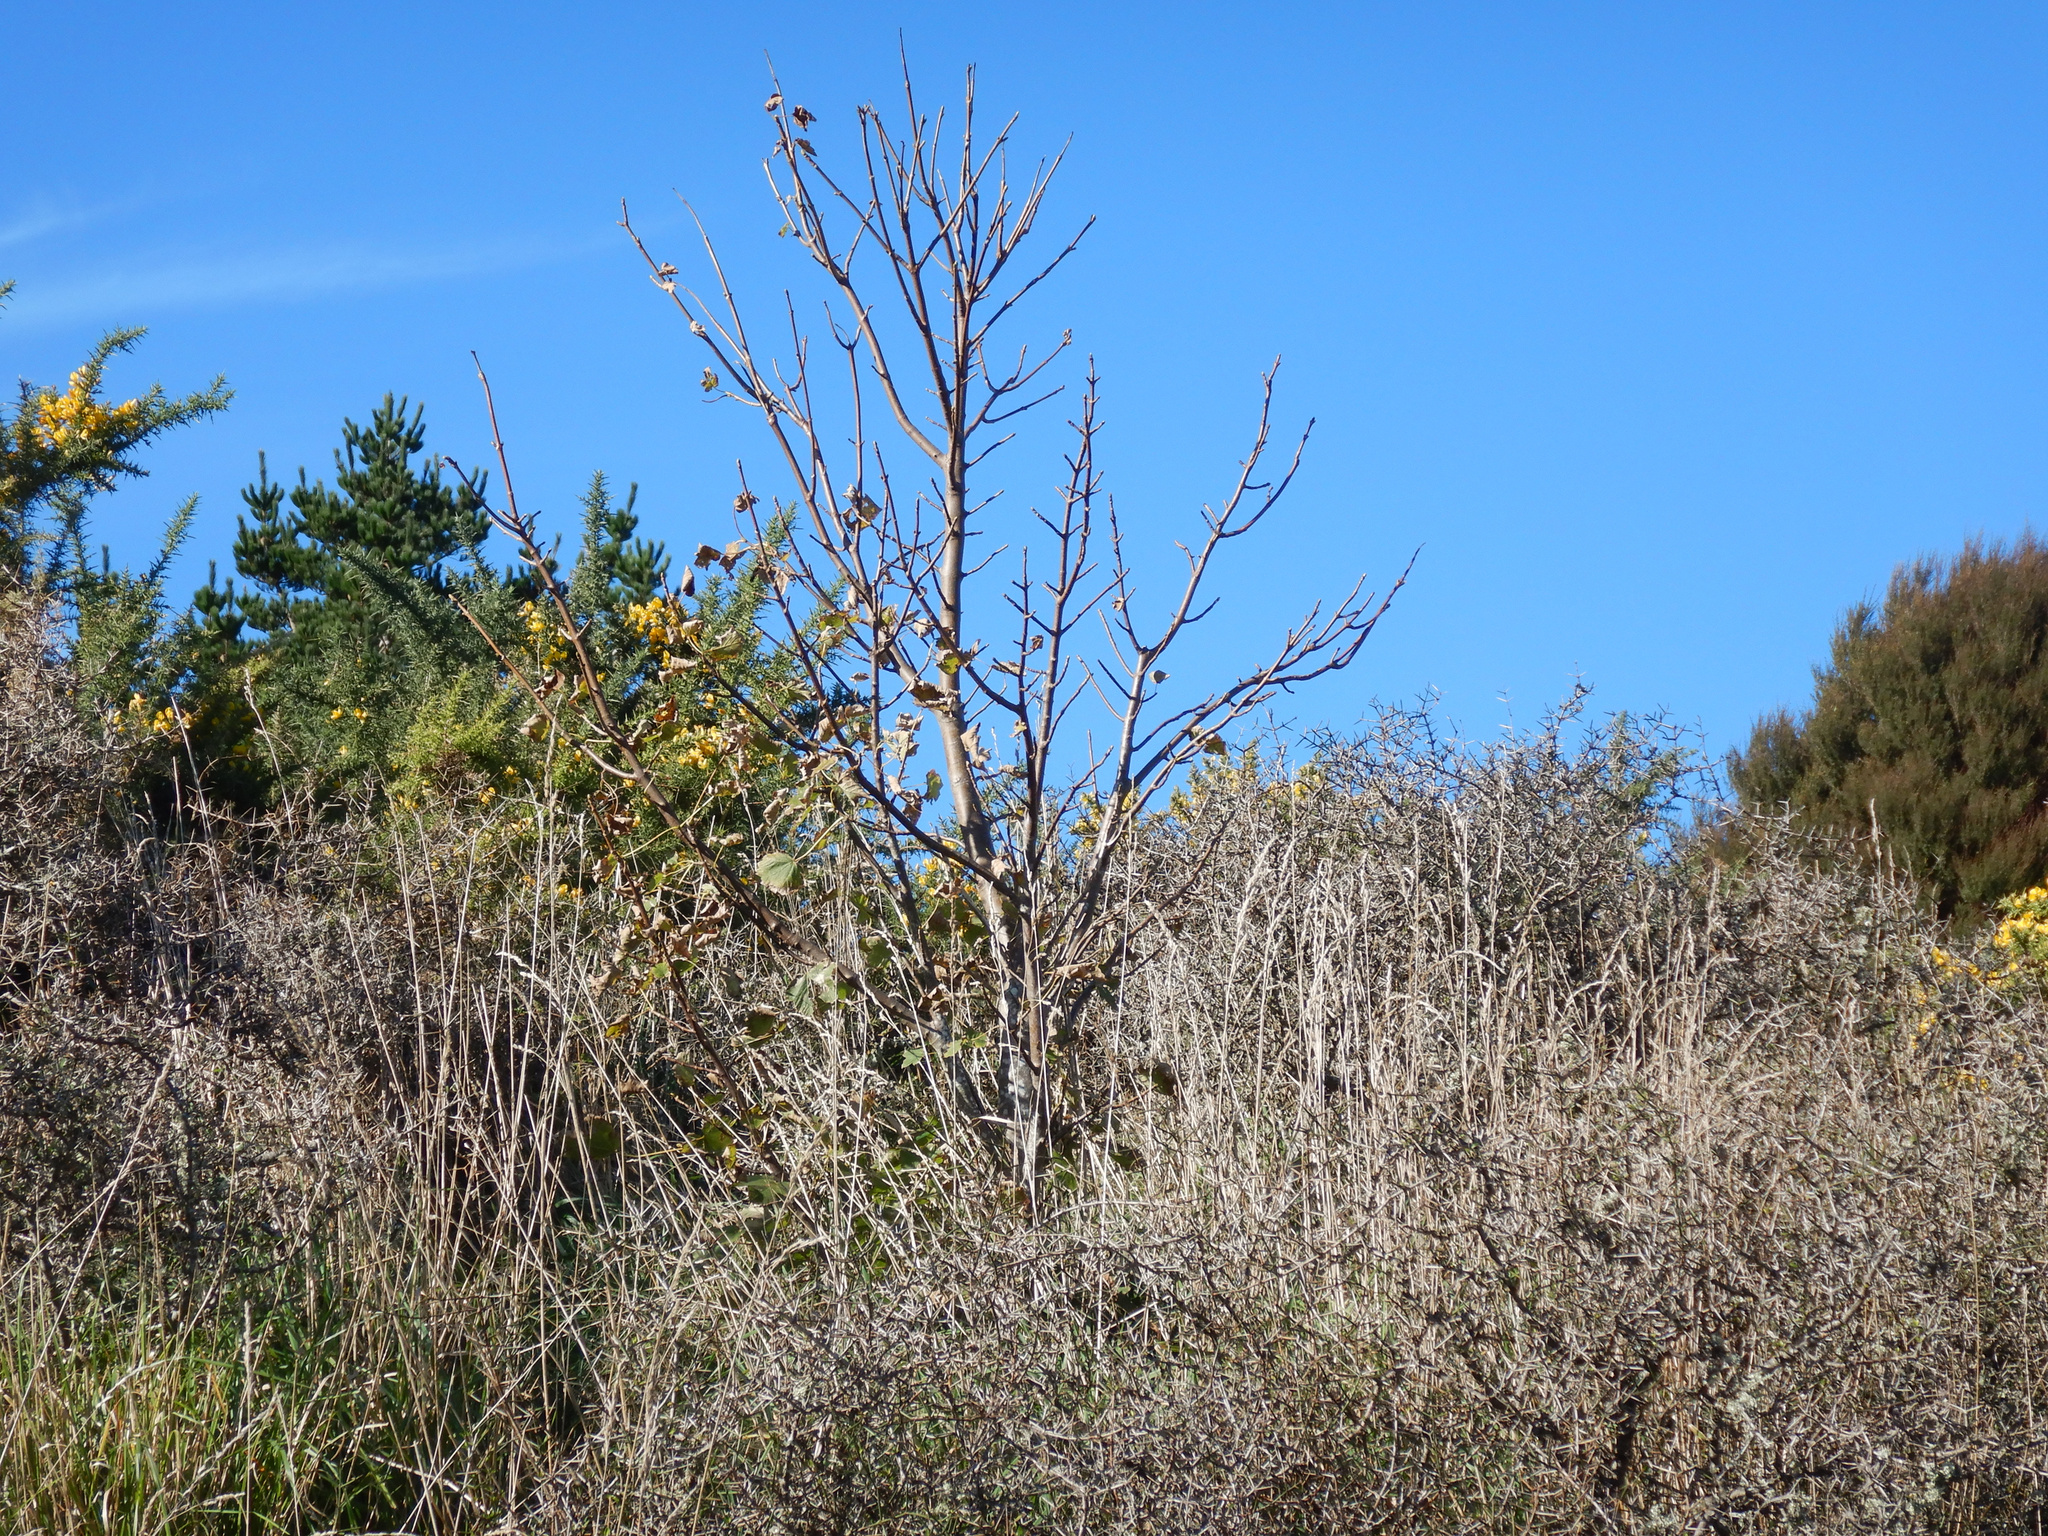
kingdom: Plantae
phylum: Tracheophyta
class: Magnoliopsida
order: Rosales
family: Rhamnaceae
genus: Discaria
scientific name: Discaria toumatou
